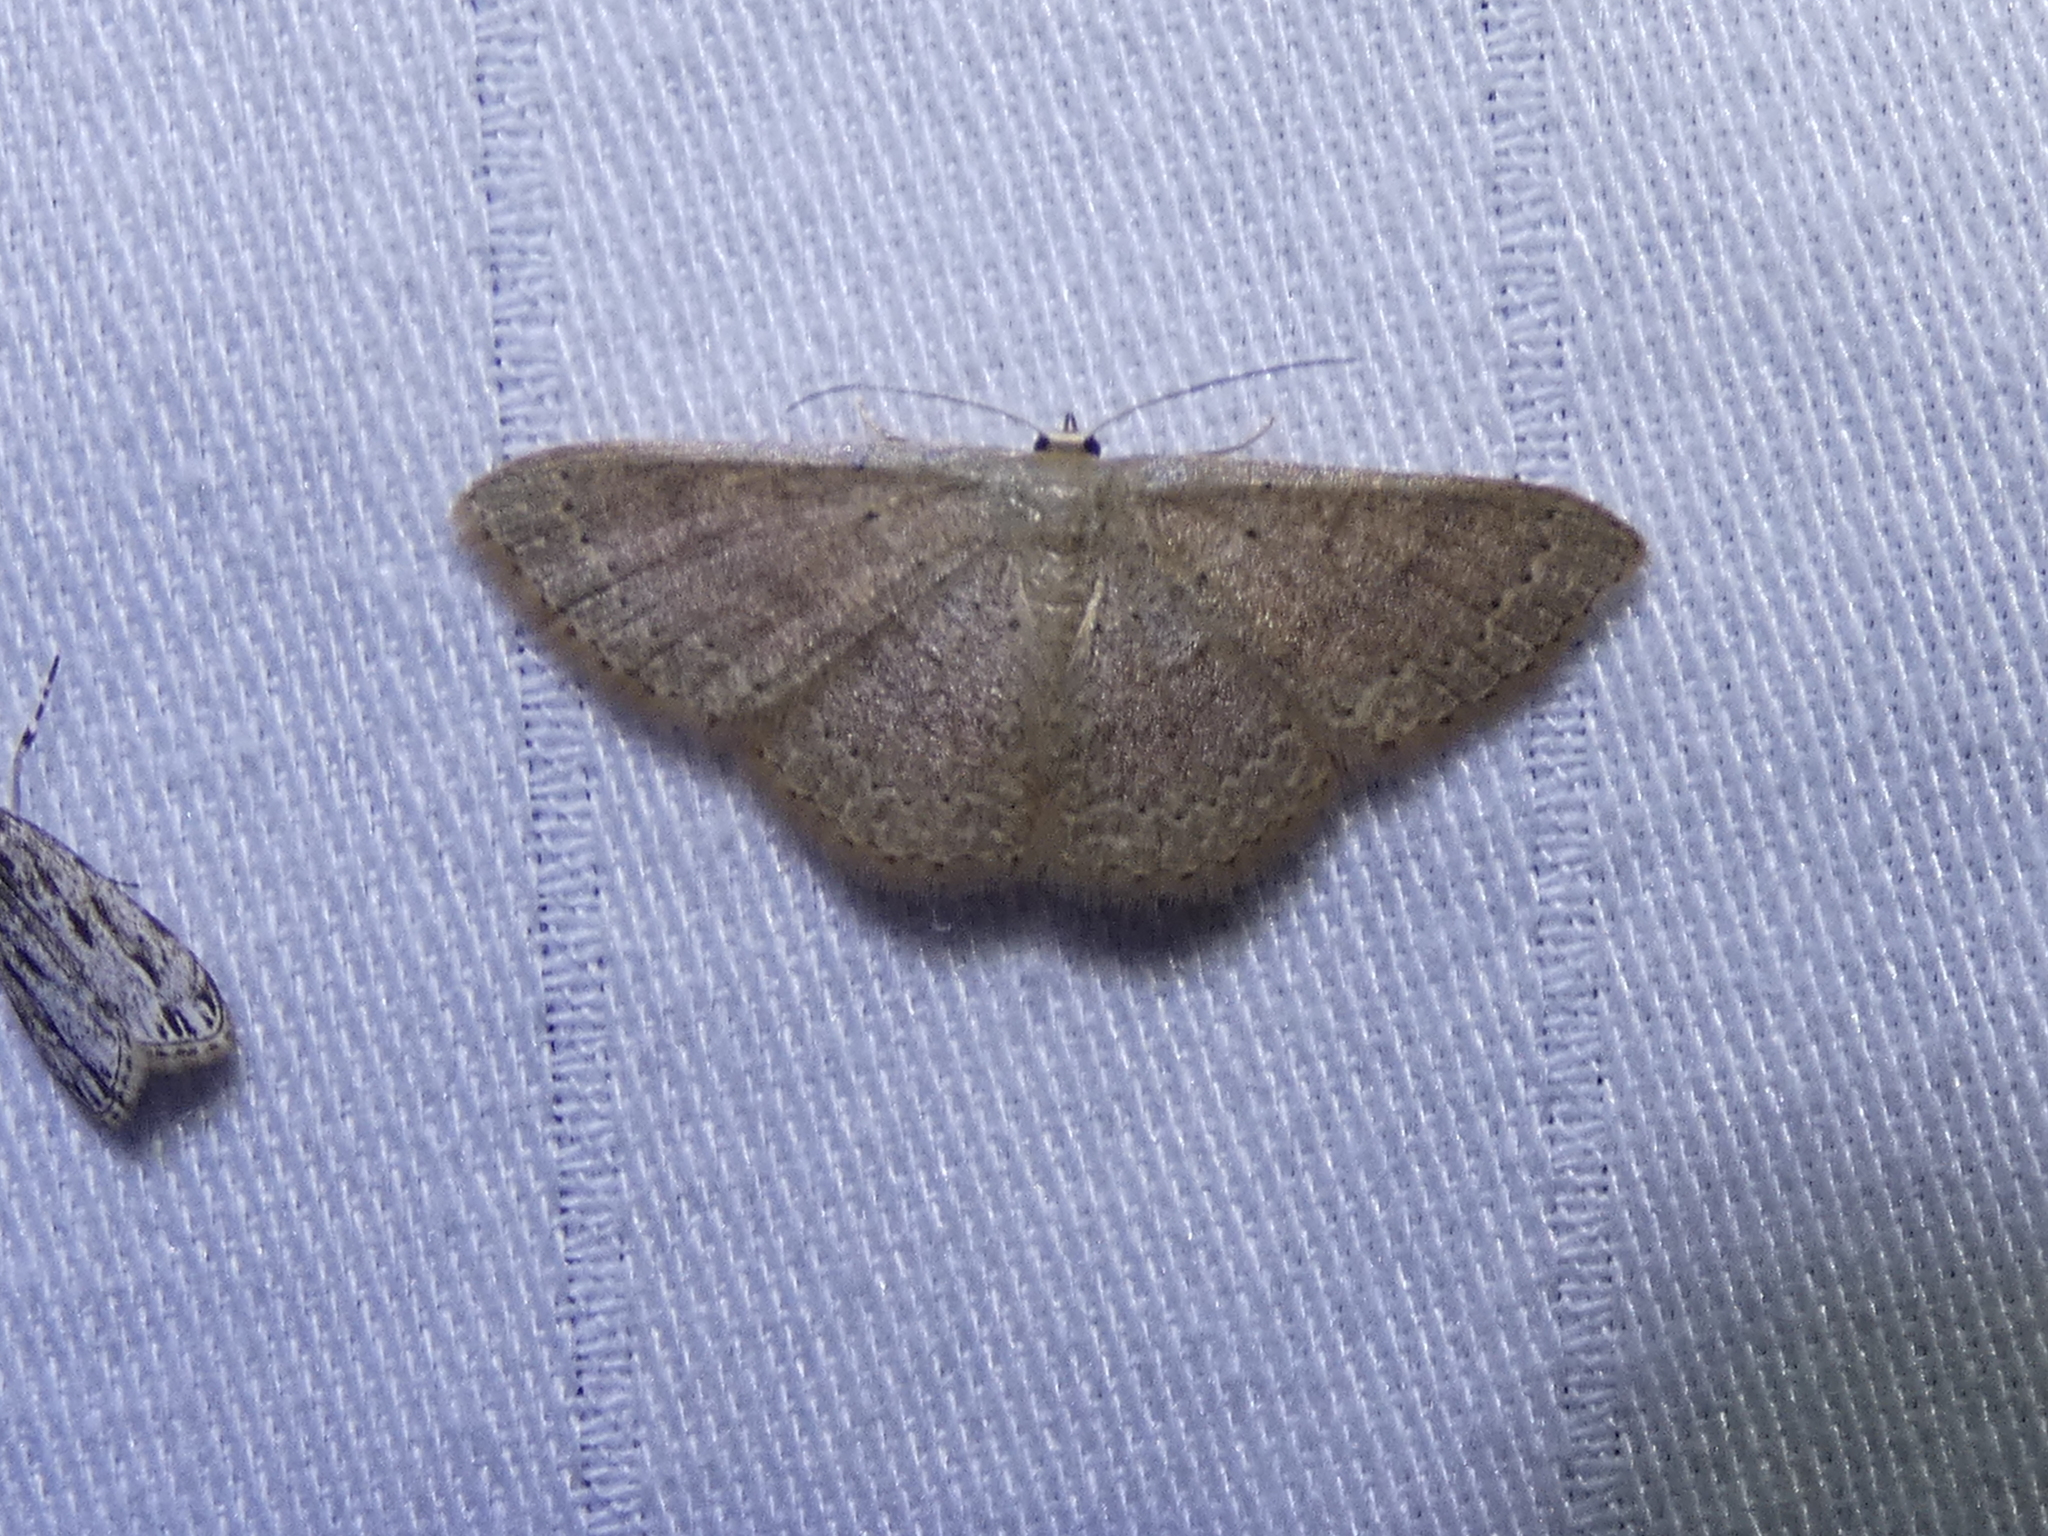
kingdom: Animalia
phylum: Arthropoda
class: Insecta
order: Lepidoptera
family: Geometridae
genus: Pleuroprucha
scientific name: Pleuroprucha insulsaria
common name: Common tan wave
